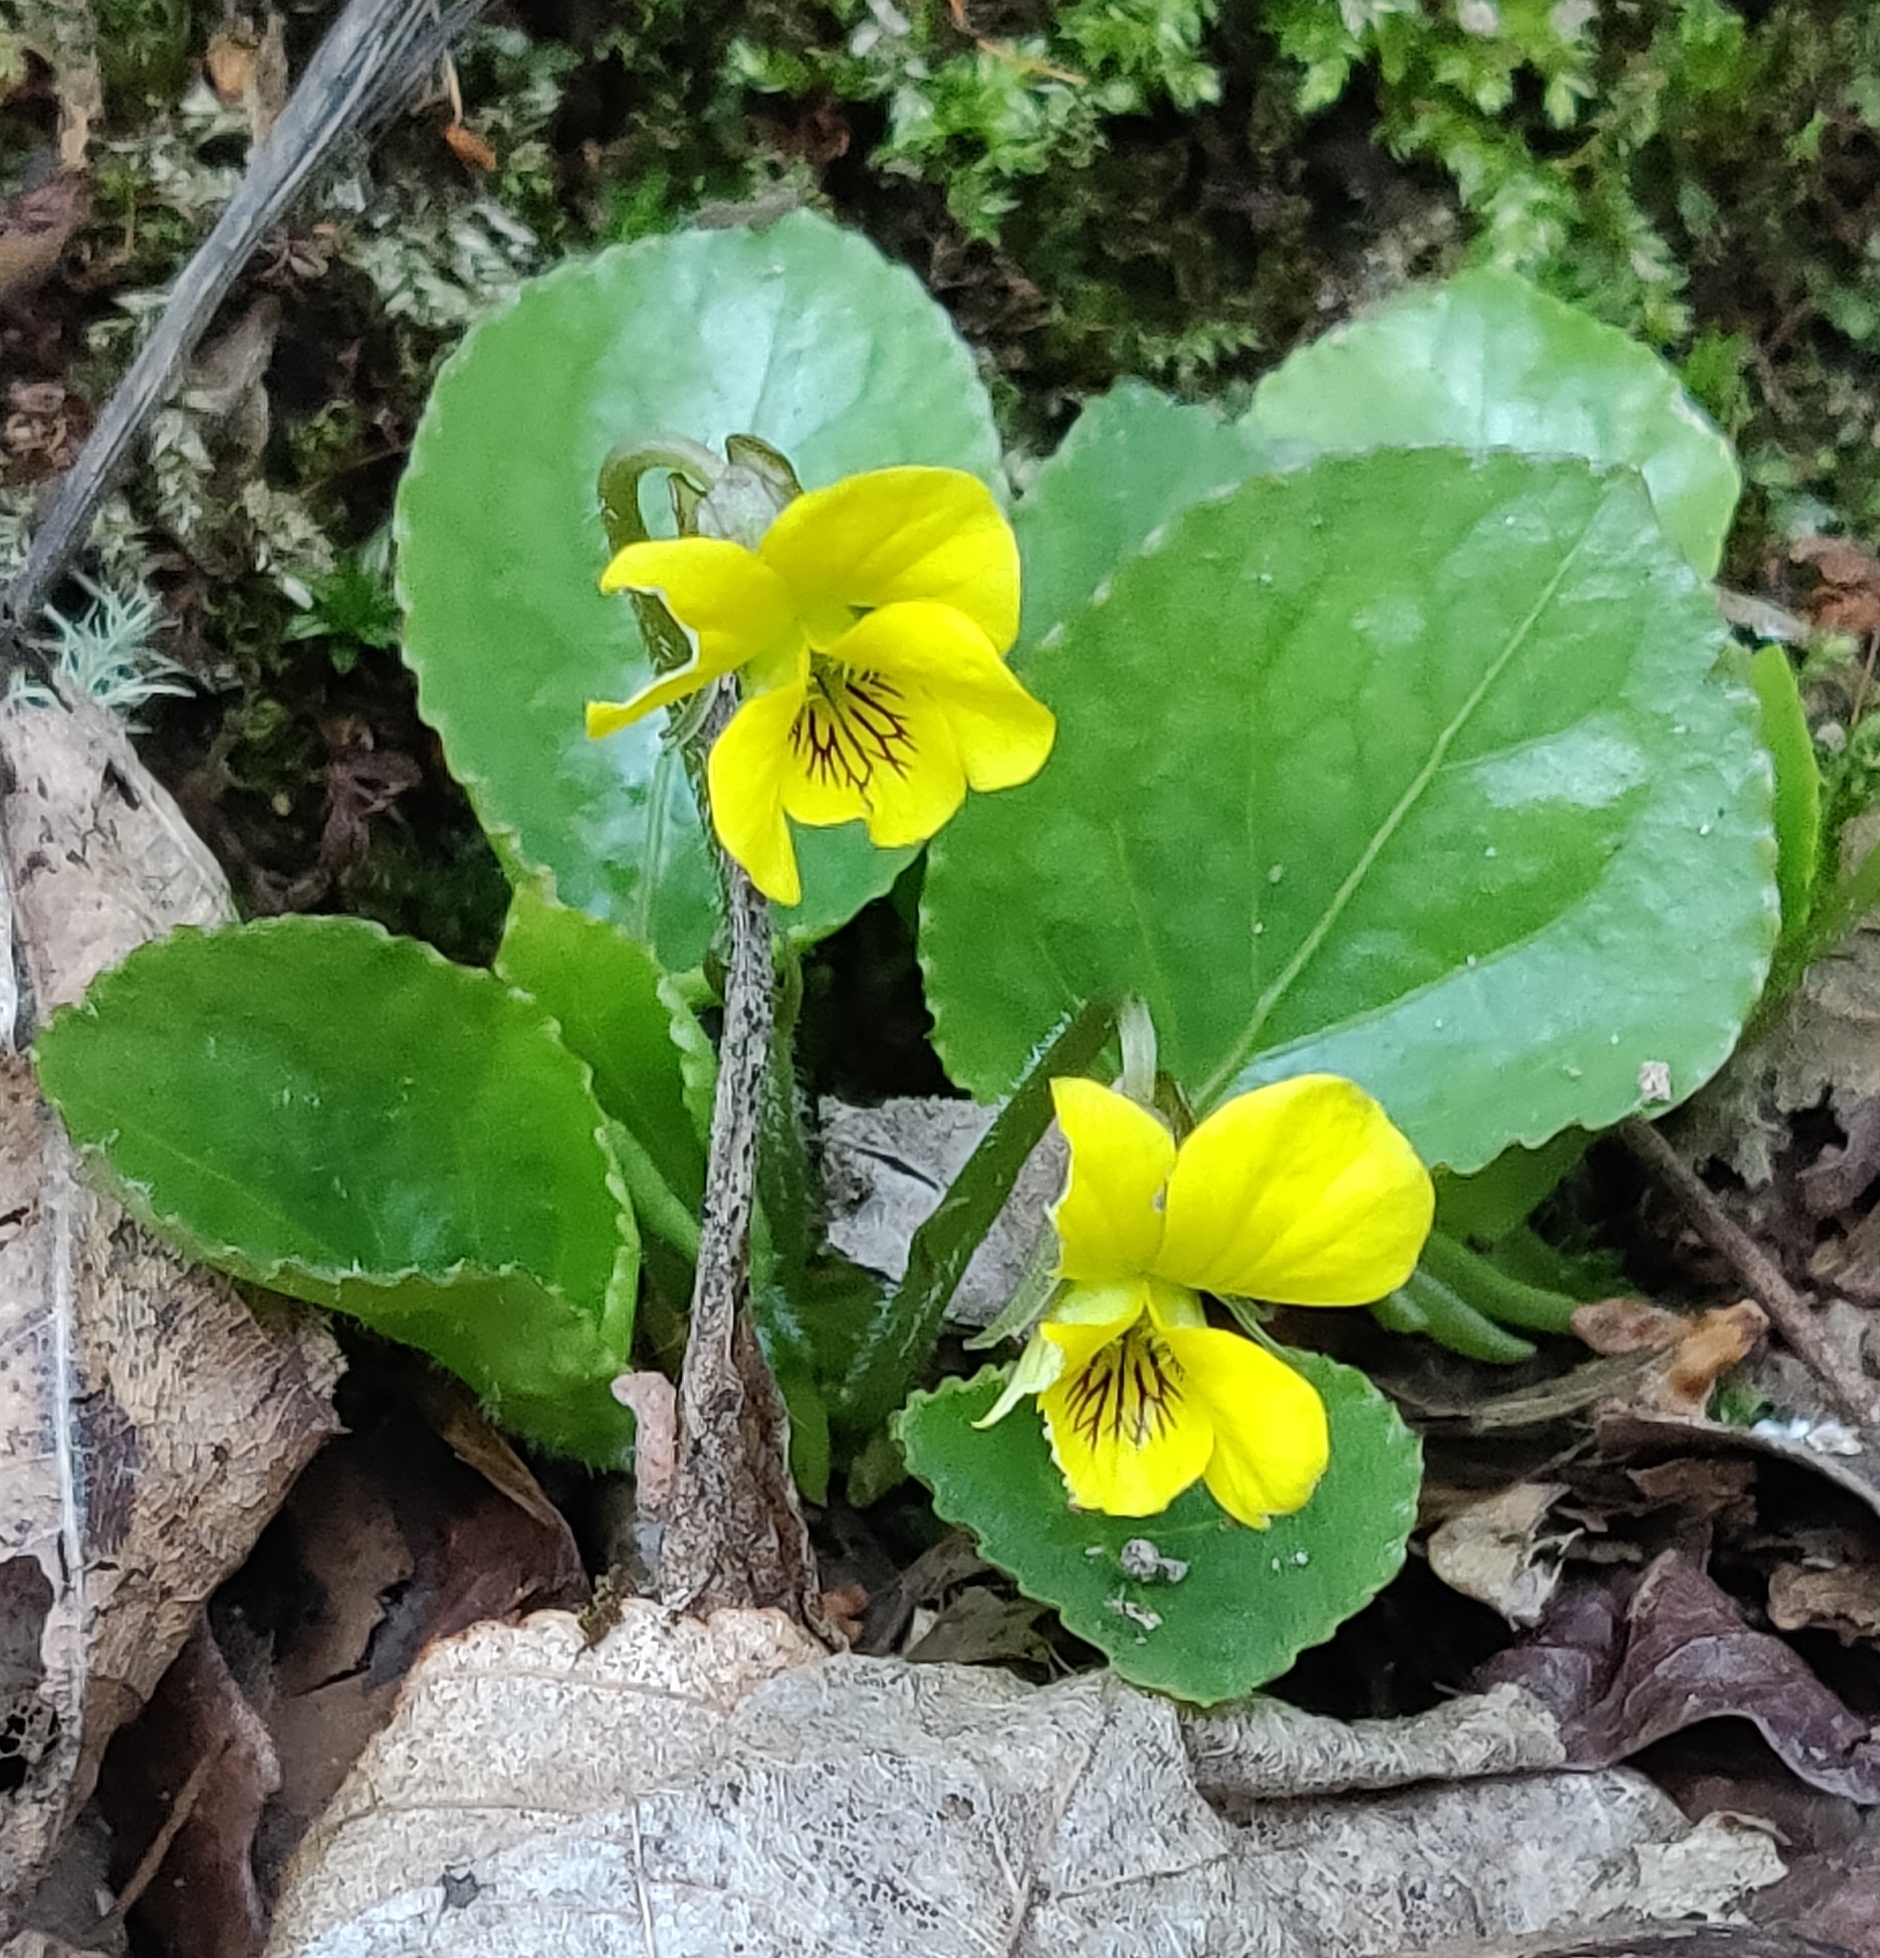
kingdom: Plantae
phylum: Tracheophyta
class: Magnoliopsida
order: Malpighiales
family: Violaceae
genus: Viola
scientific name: Viola rotundifolia
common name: Early yellow violet
